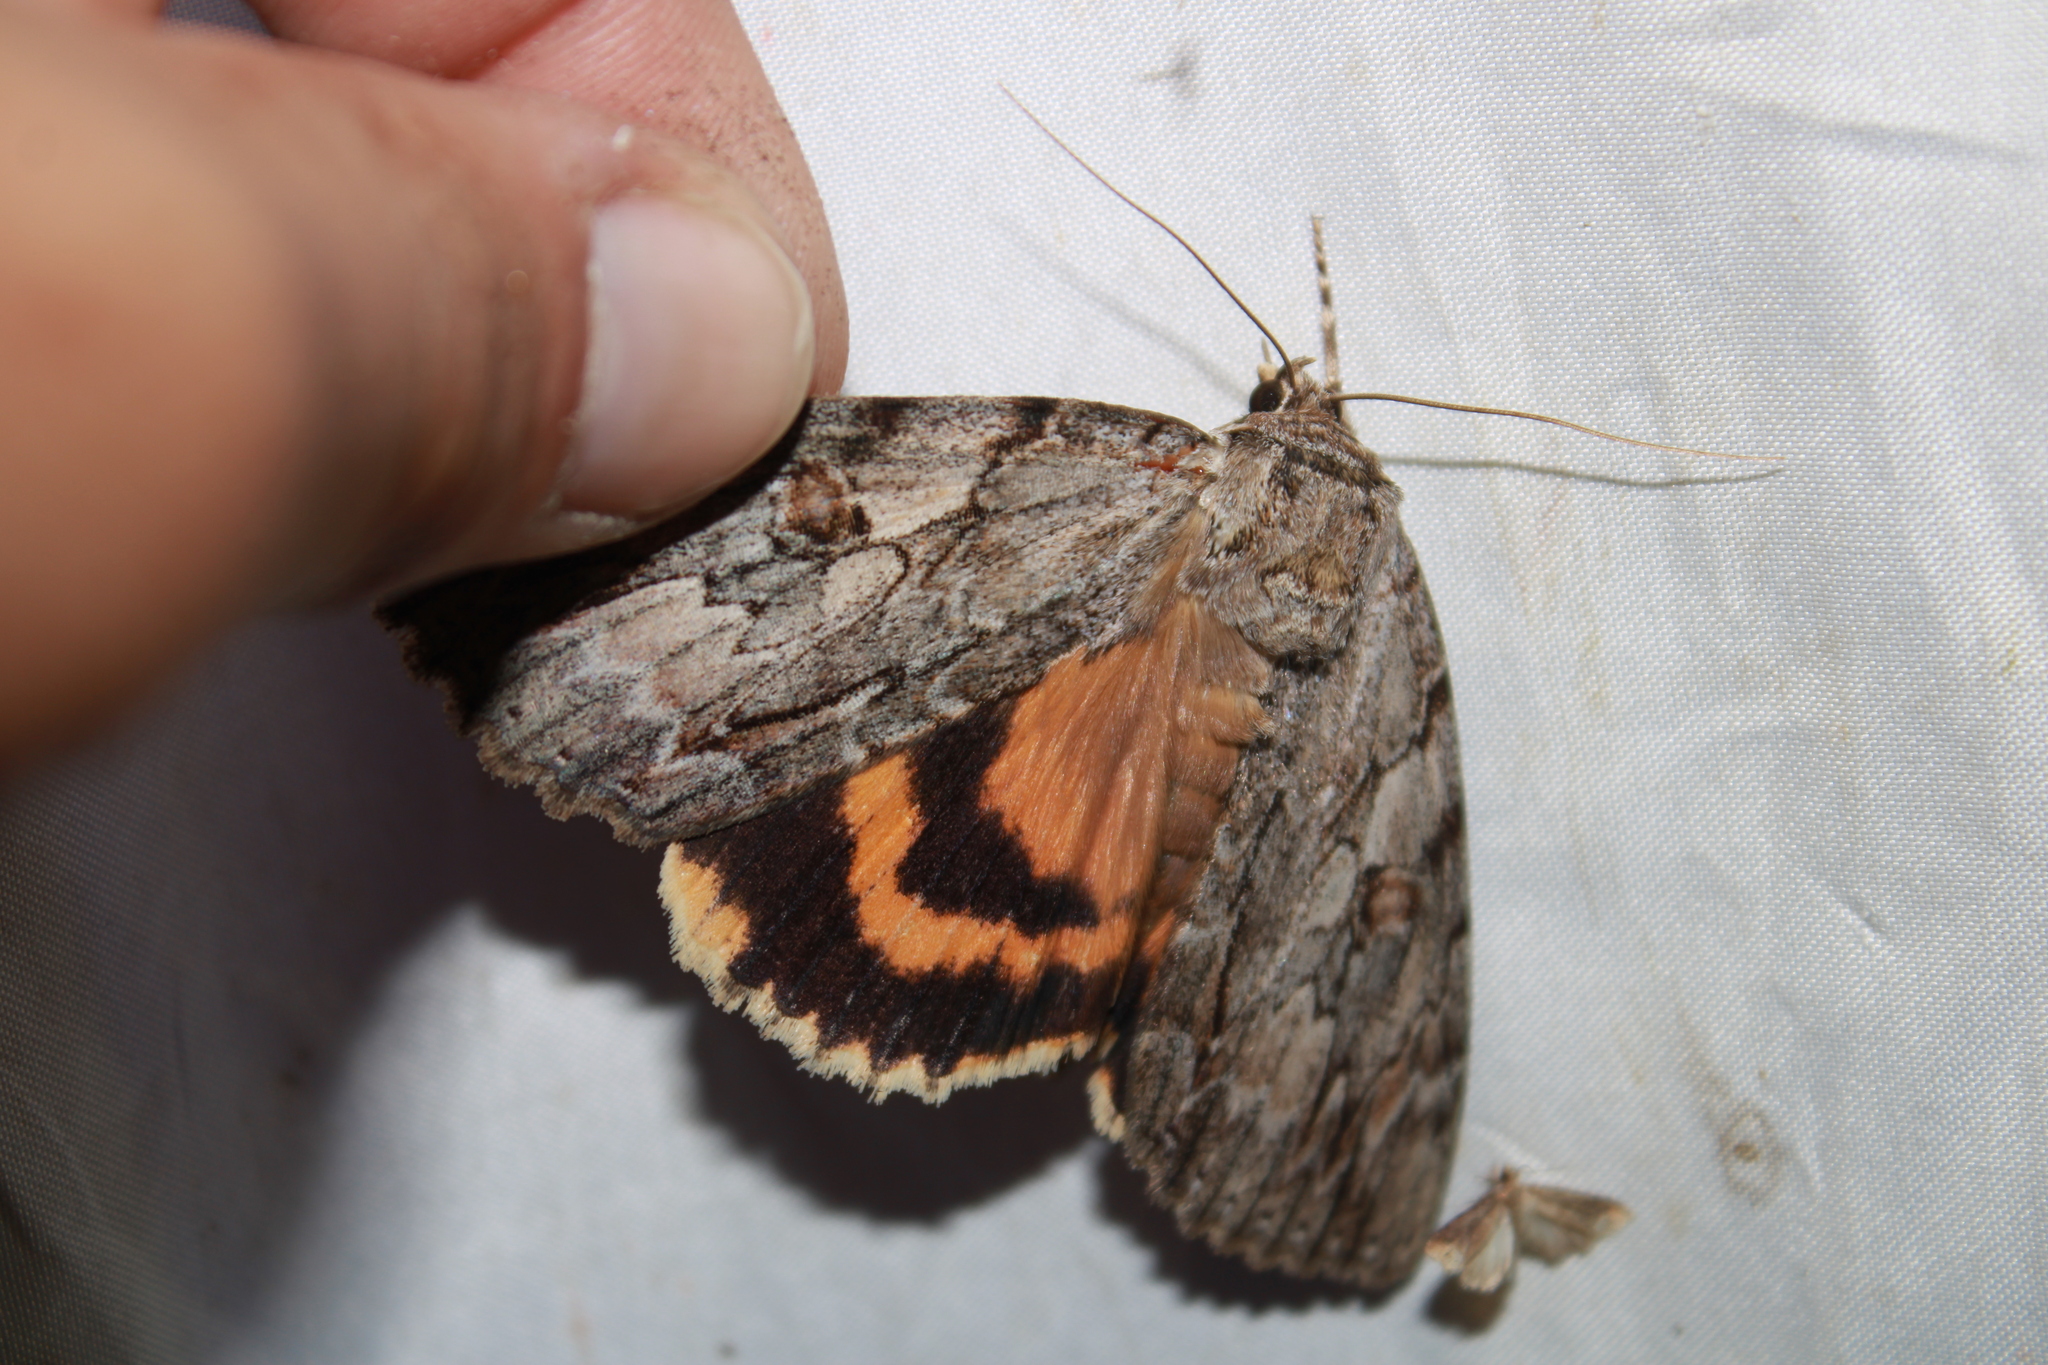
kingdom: Animalia
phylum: Arthropoda
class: Insecta
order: Lepidoptera
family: Erebidae
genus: Catocala
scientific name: Catocala subnata
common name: Youthful underwing
